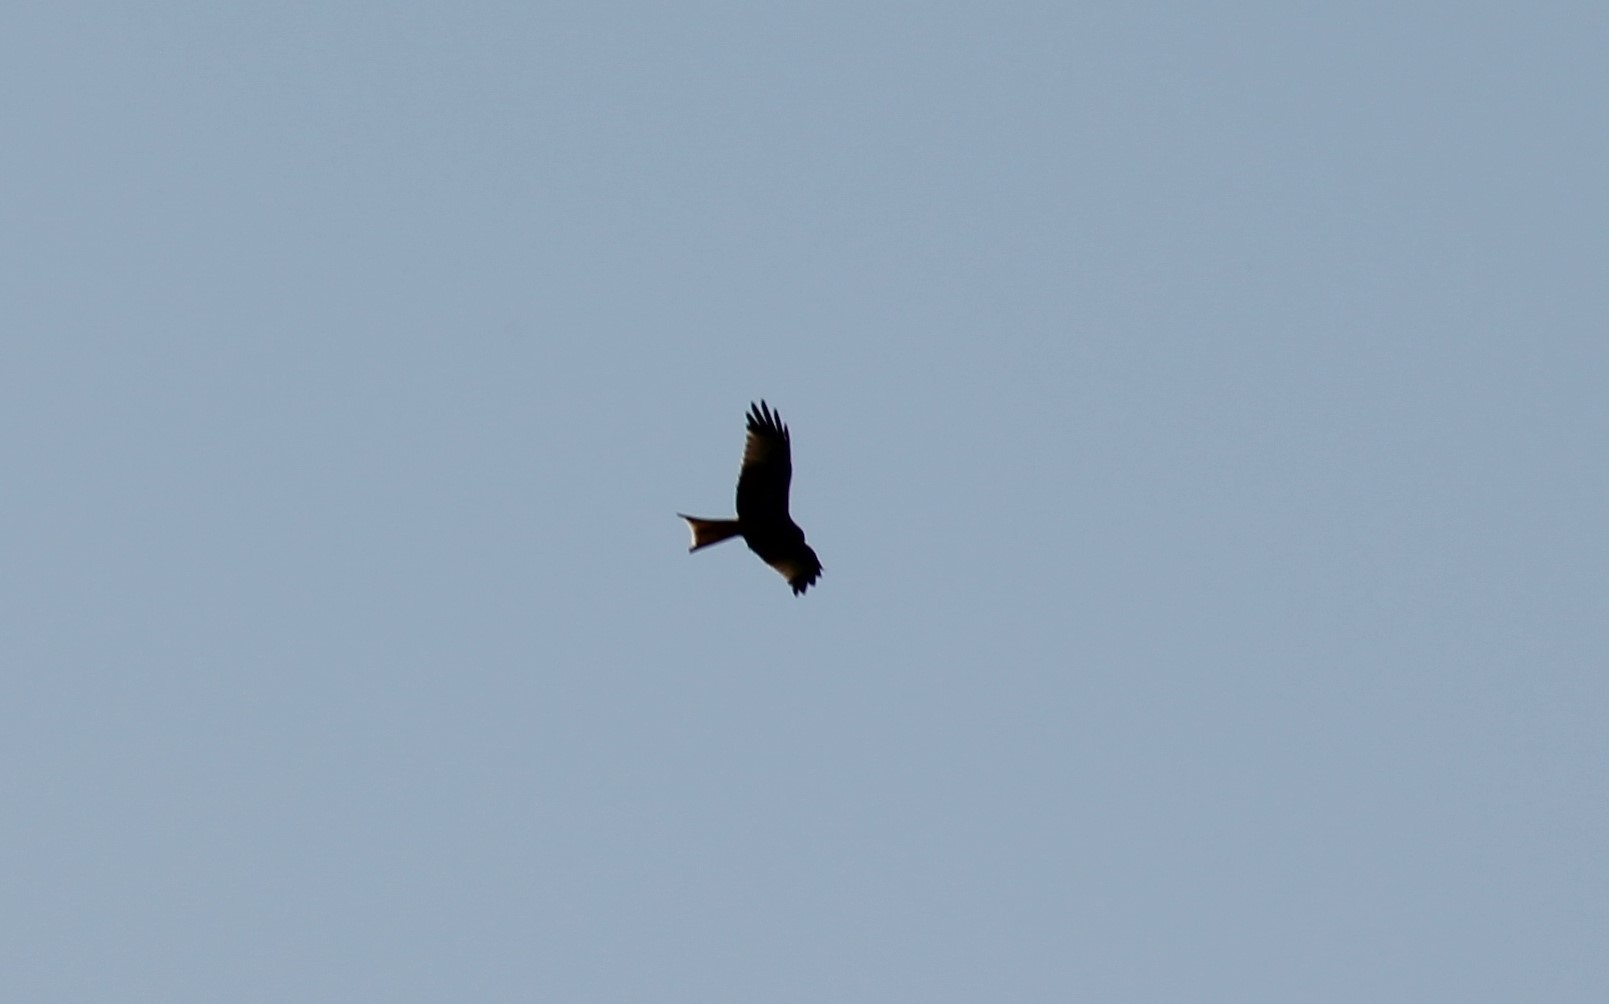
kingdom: Animalia
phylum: Chordata
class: Aves
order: Accipitriformes
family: Accipitridae
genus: Milvus
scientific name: Milvus milvus
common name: Red kite
